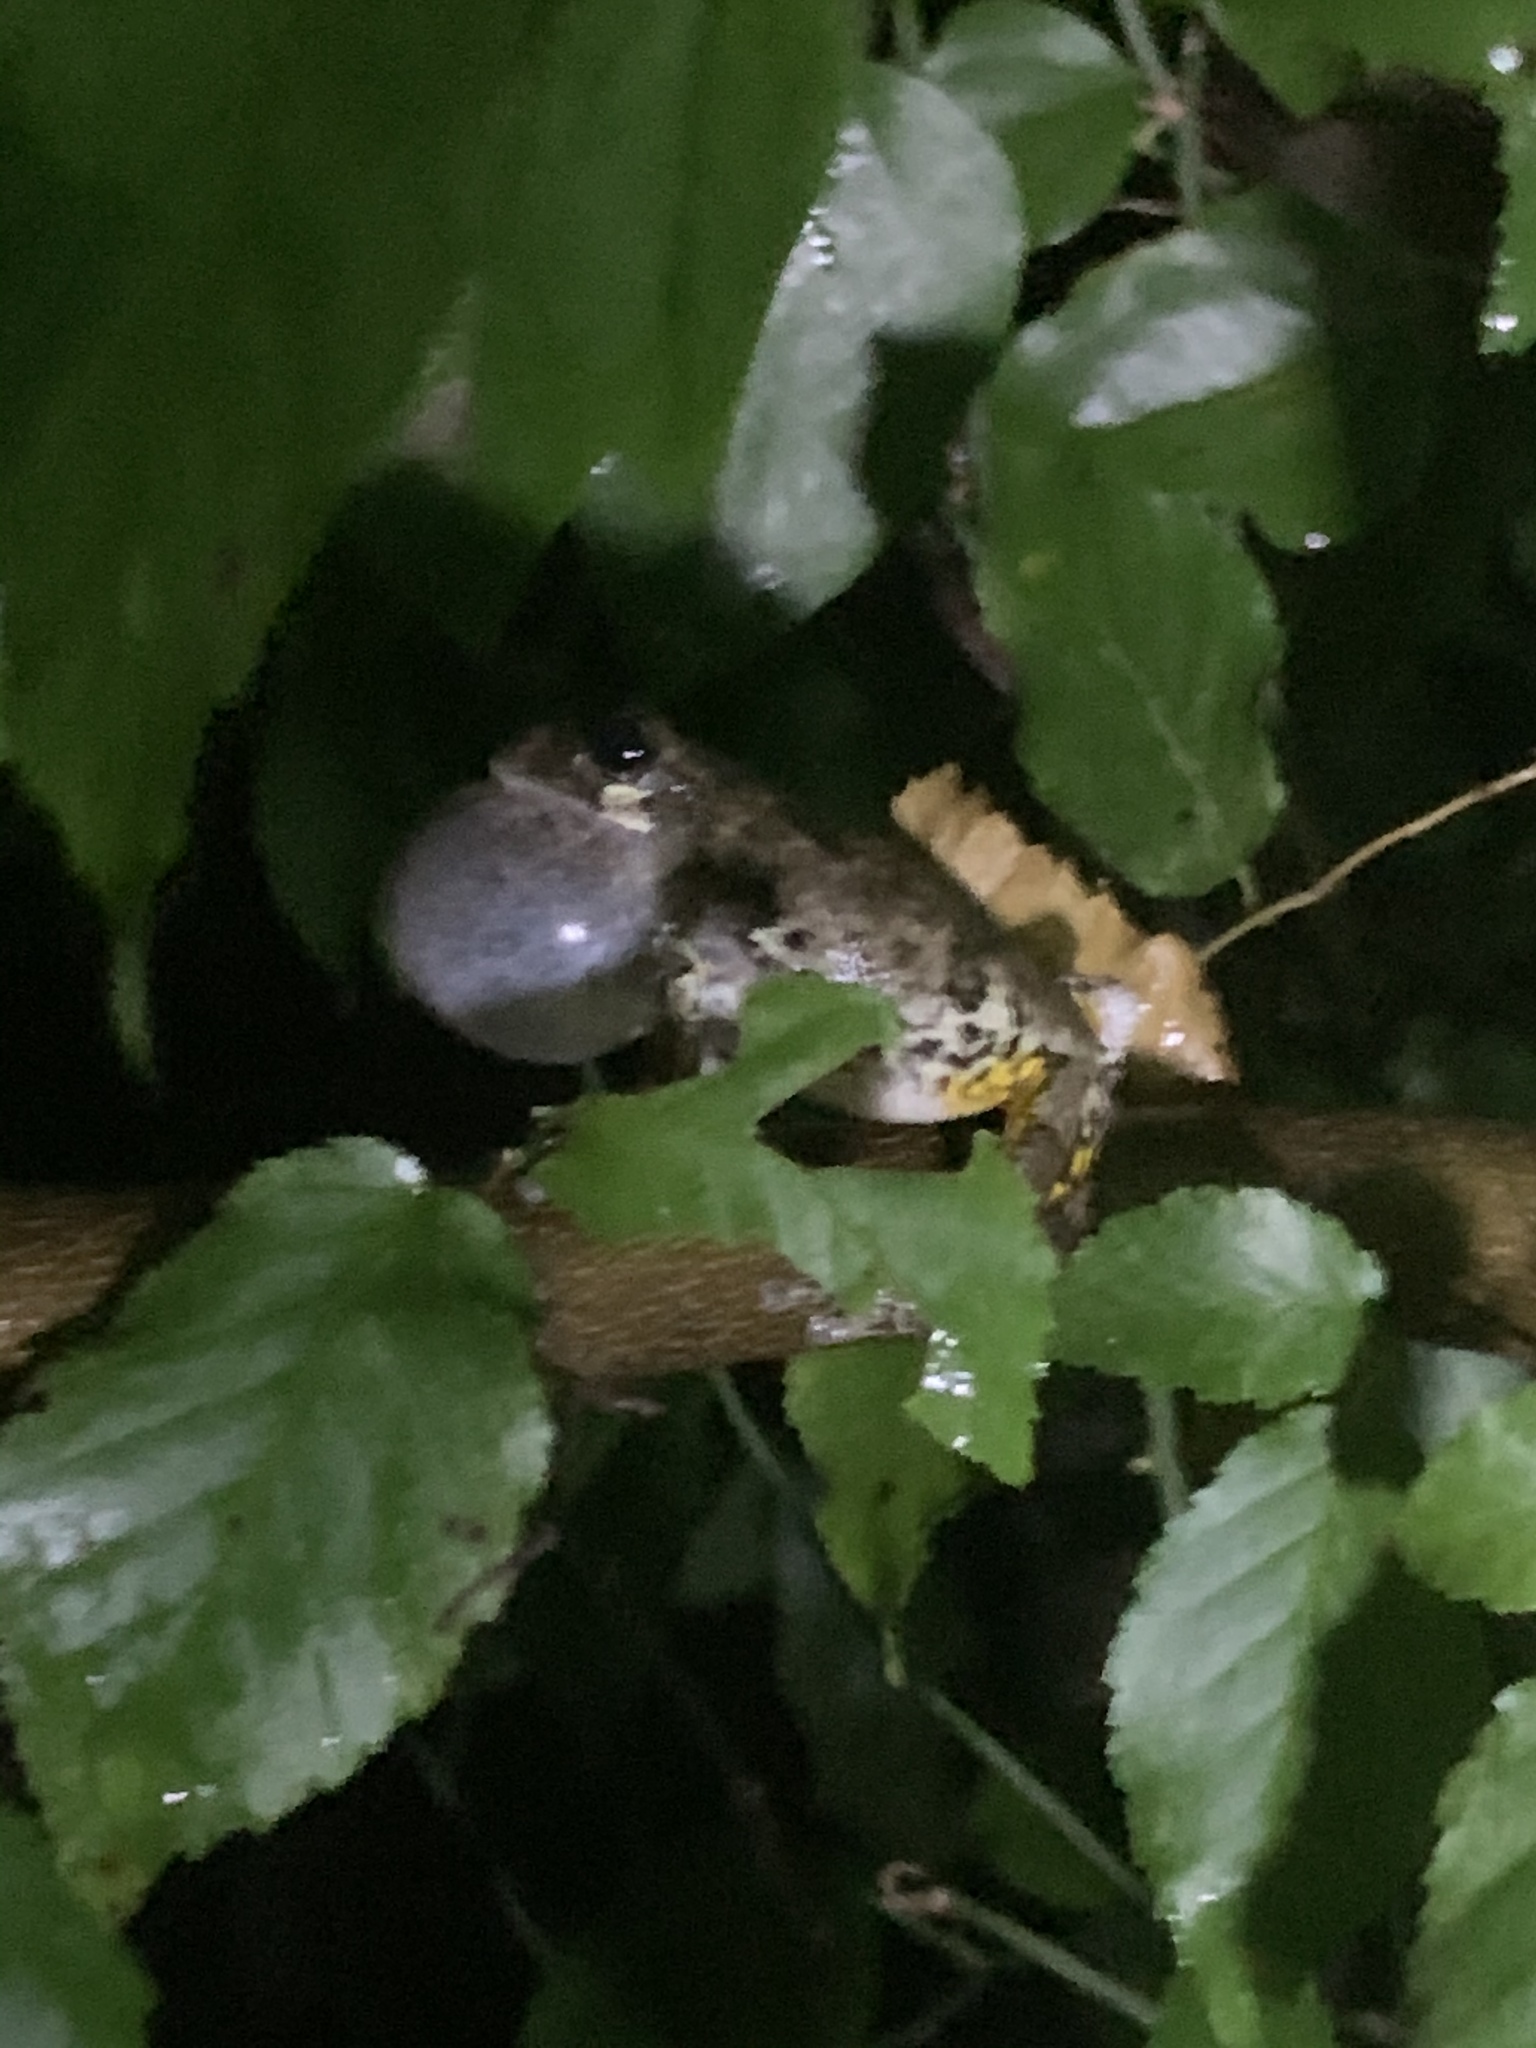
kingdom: Animalia
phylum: Chordata
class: Amphibia
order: Anura
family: Hylidae
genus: Dryophytes
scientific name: Dryophytes chrysoscelis
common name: Cope's gray treefrog
